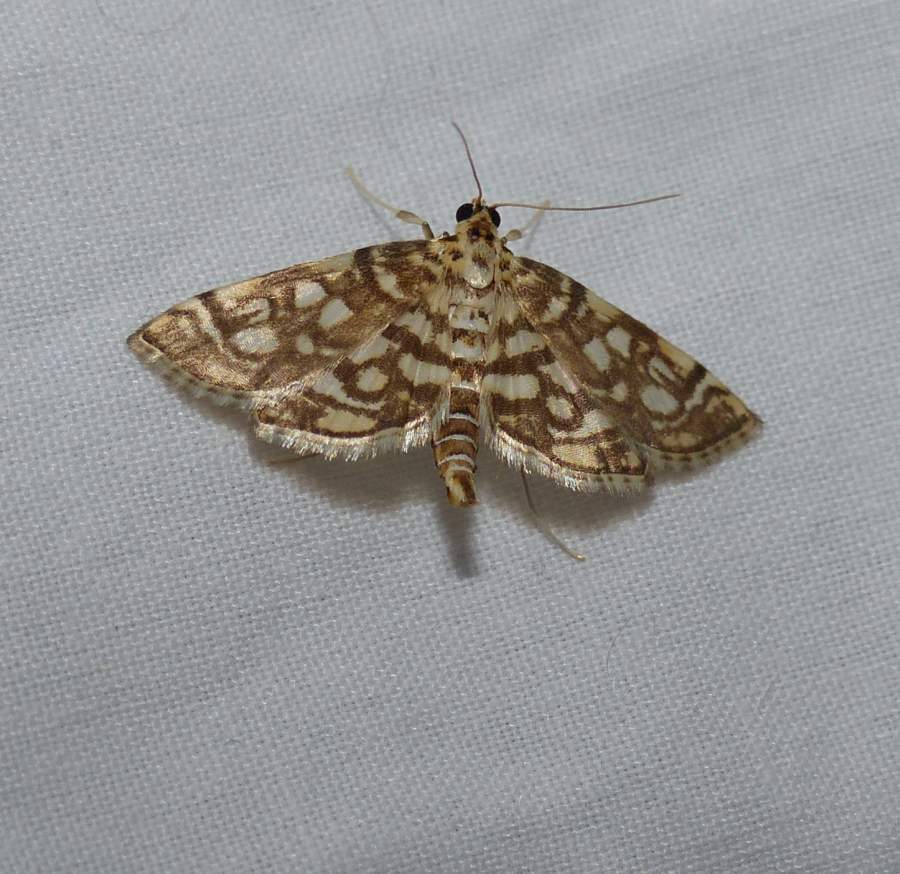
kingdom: Animalia
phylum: Arthropoda
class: Insecta
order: Lepidoptera
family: Crambidae
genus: Lygropia
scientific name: Lygropia rivulalis
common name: Bog lygropia moth
